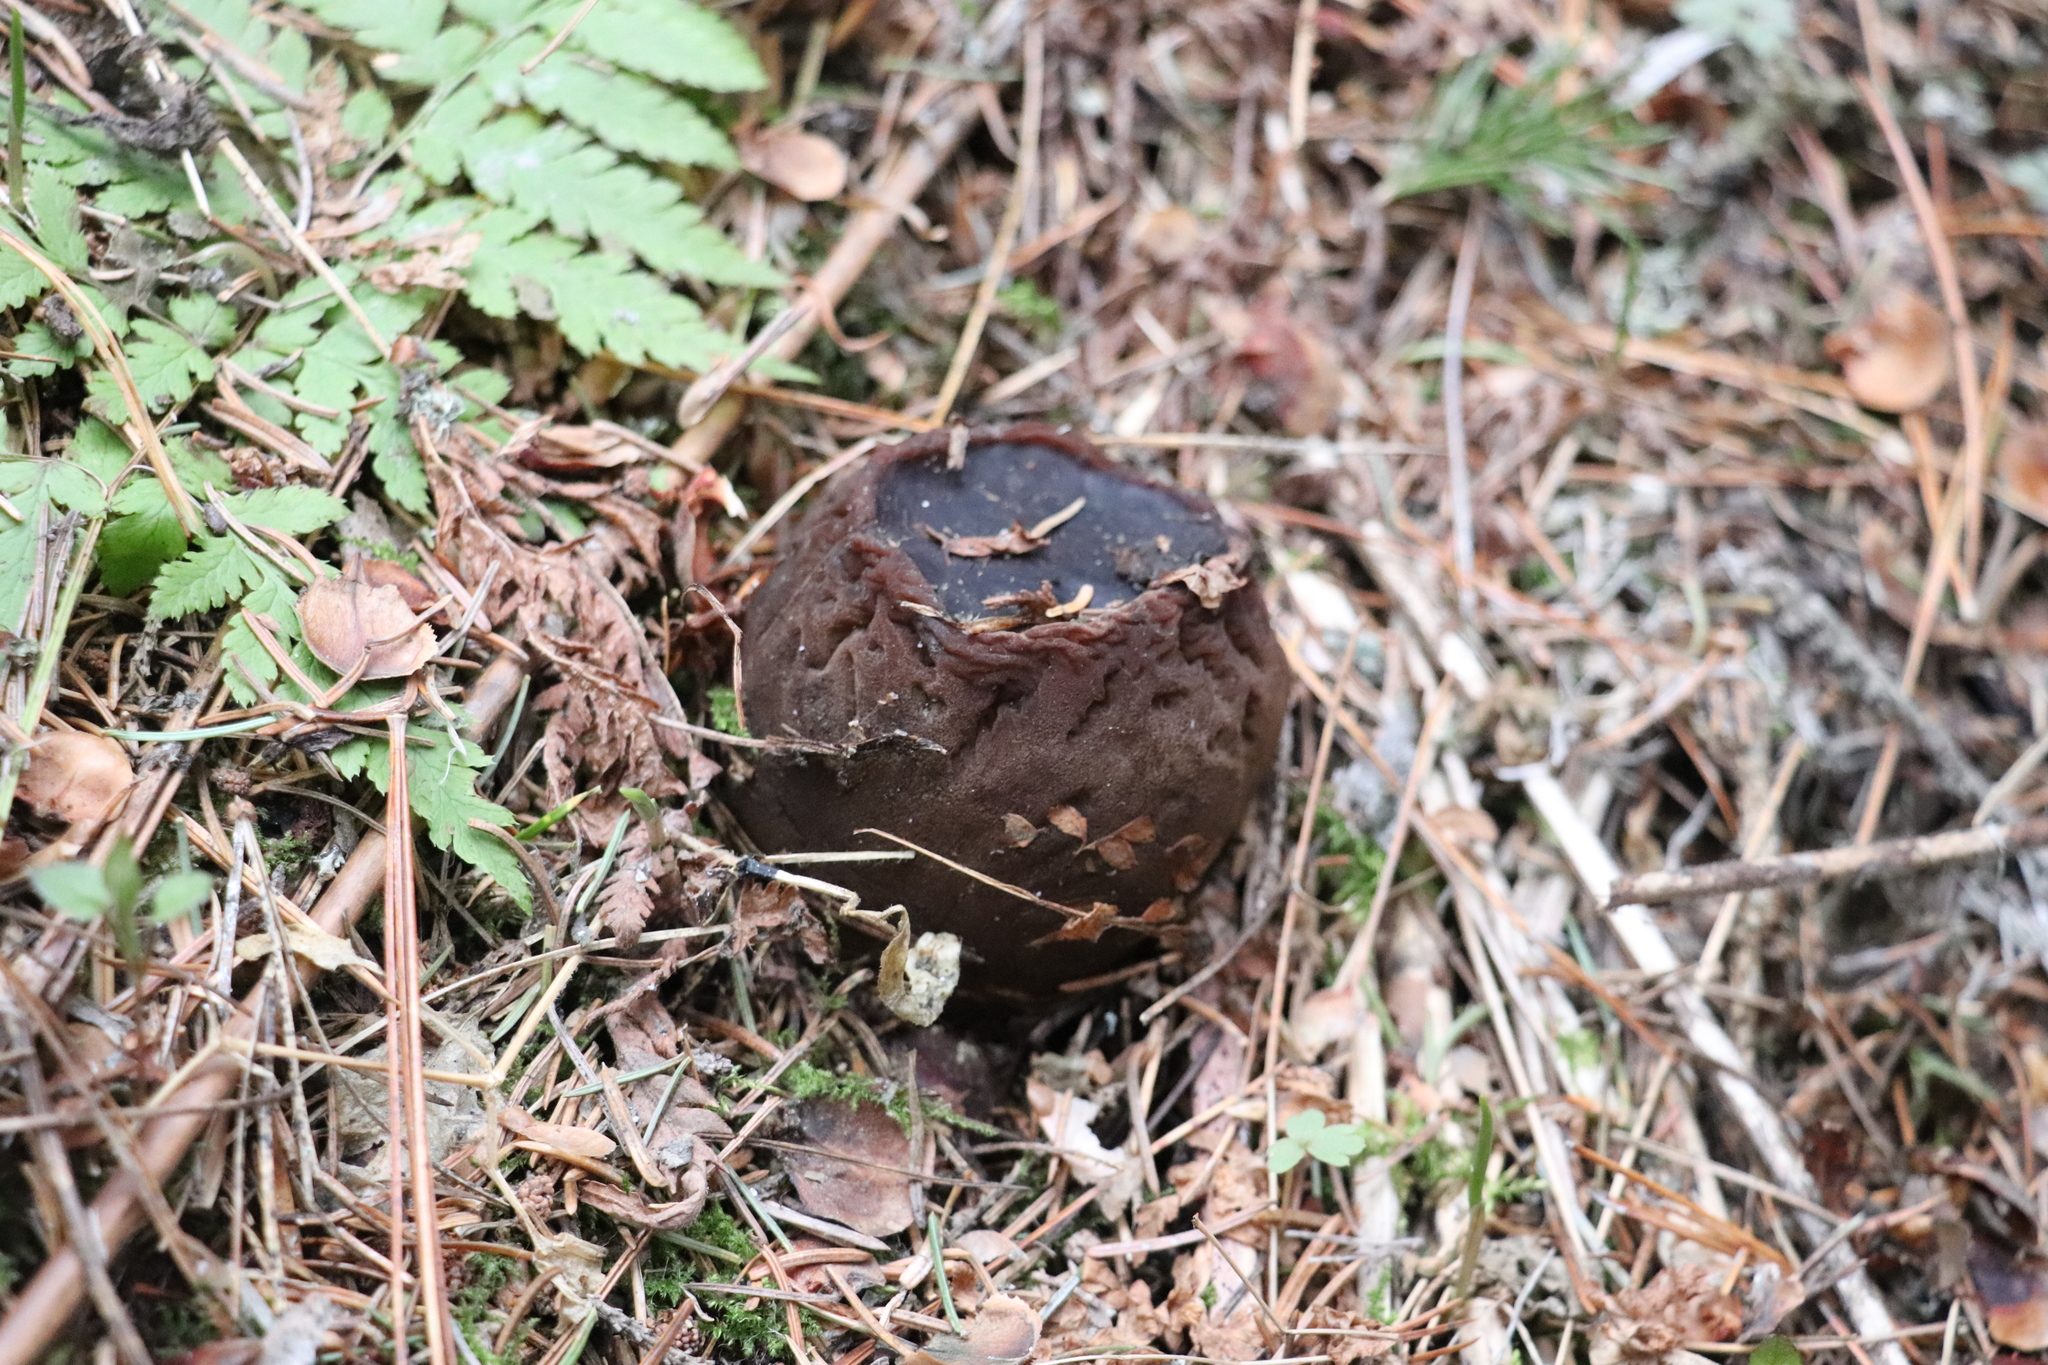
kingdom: Fungi
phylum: Ascomycota
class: Pezizomycetes
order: Pezizales
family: Sarcosomataceae
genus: Sarcosoma
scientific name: Sarcosoma globosum
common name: Charred-pancake cup
